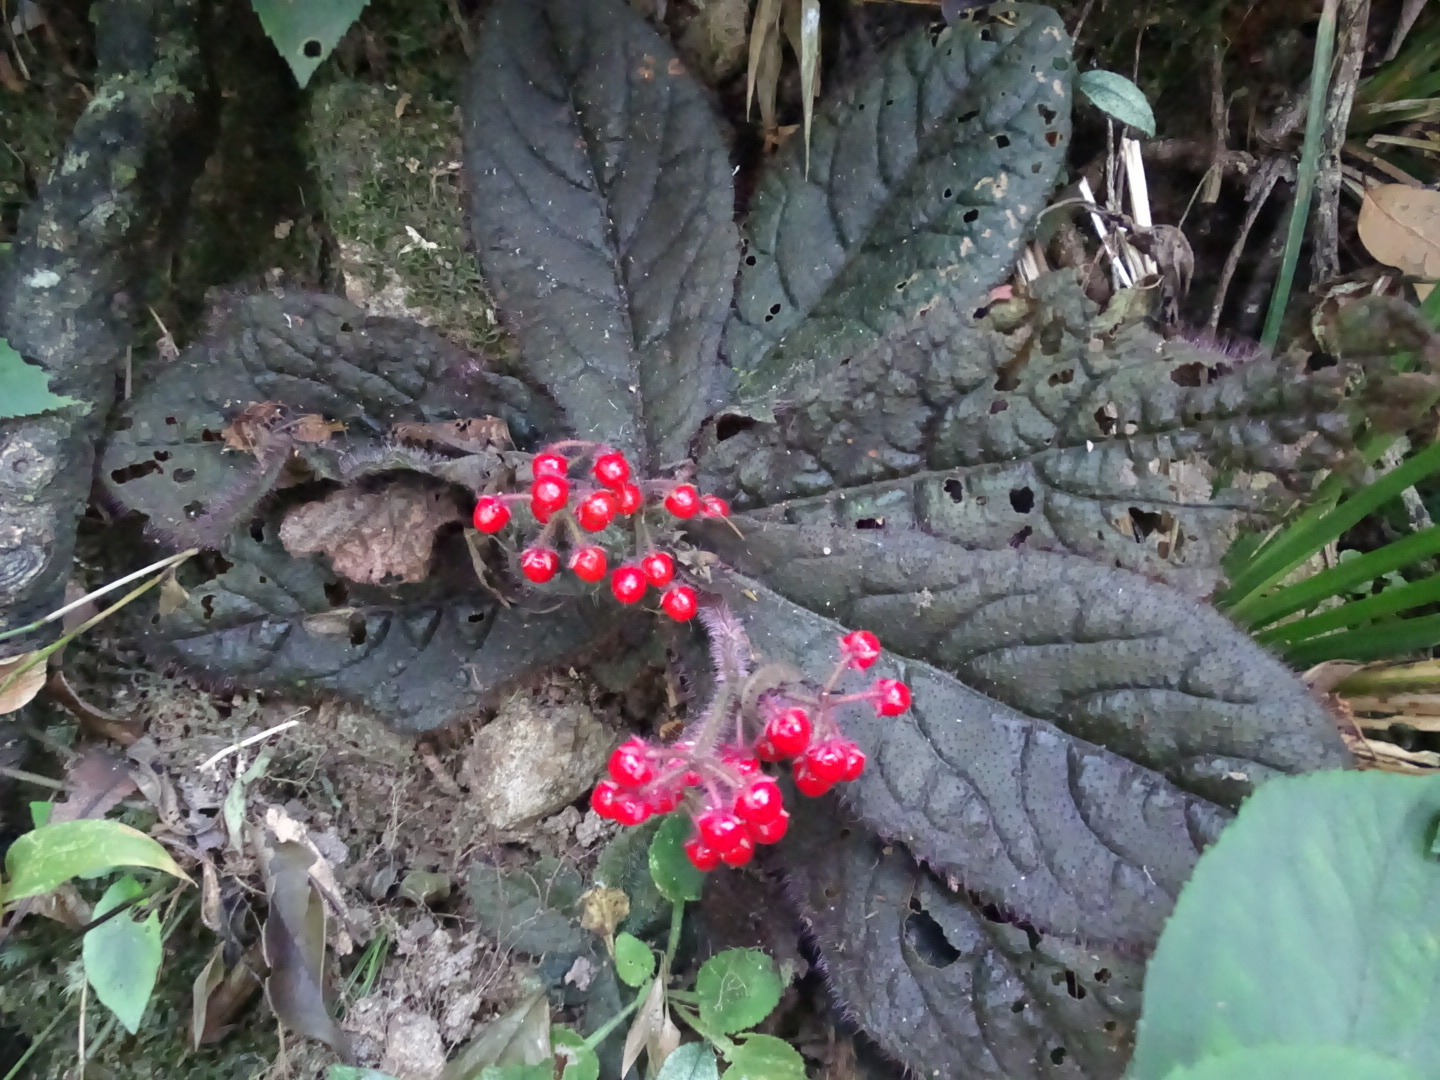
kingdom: Plantae
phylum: Tracheophyta
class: Magnoliopsida
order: Ericales
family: Primulaceae
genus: Ardisia
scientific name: Ardisia primulifolia
